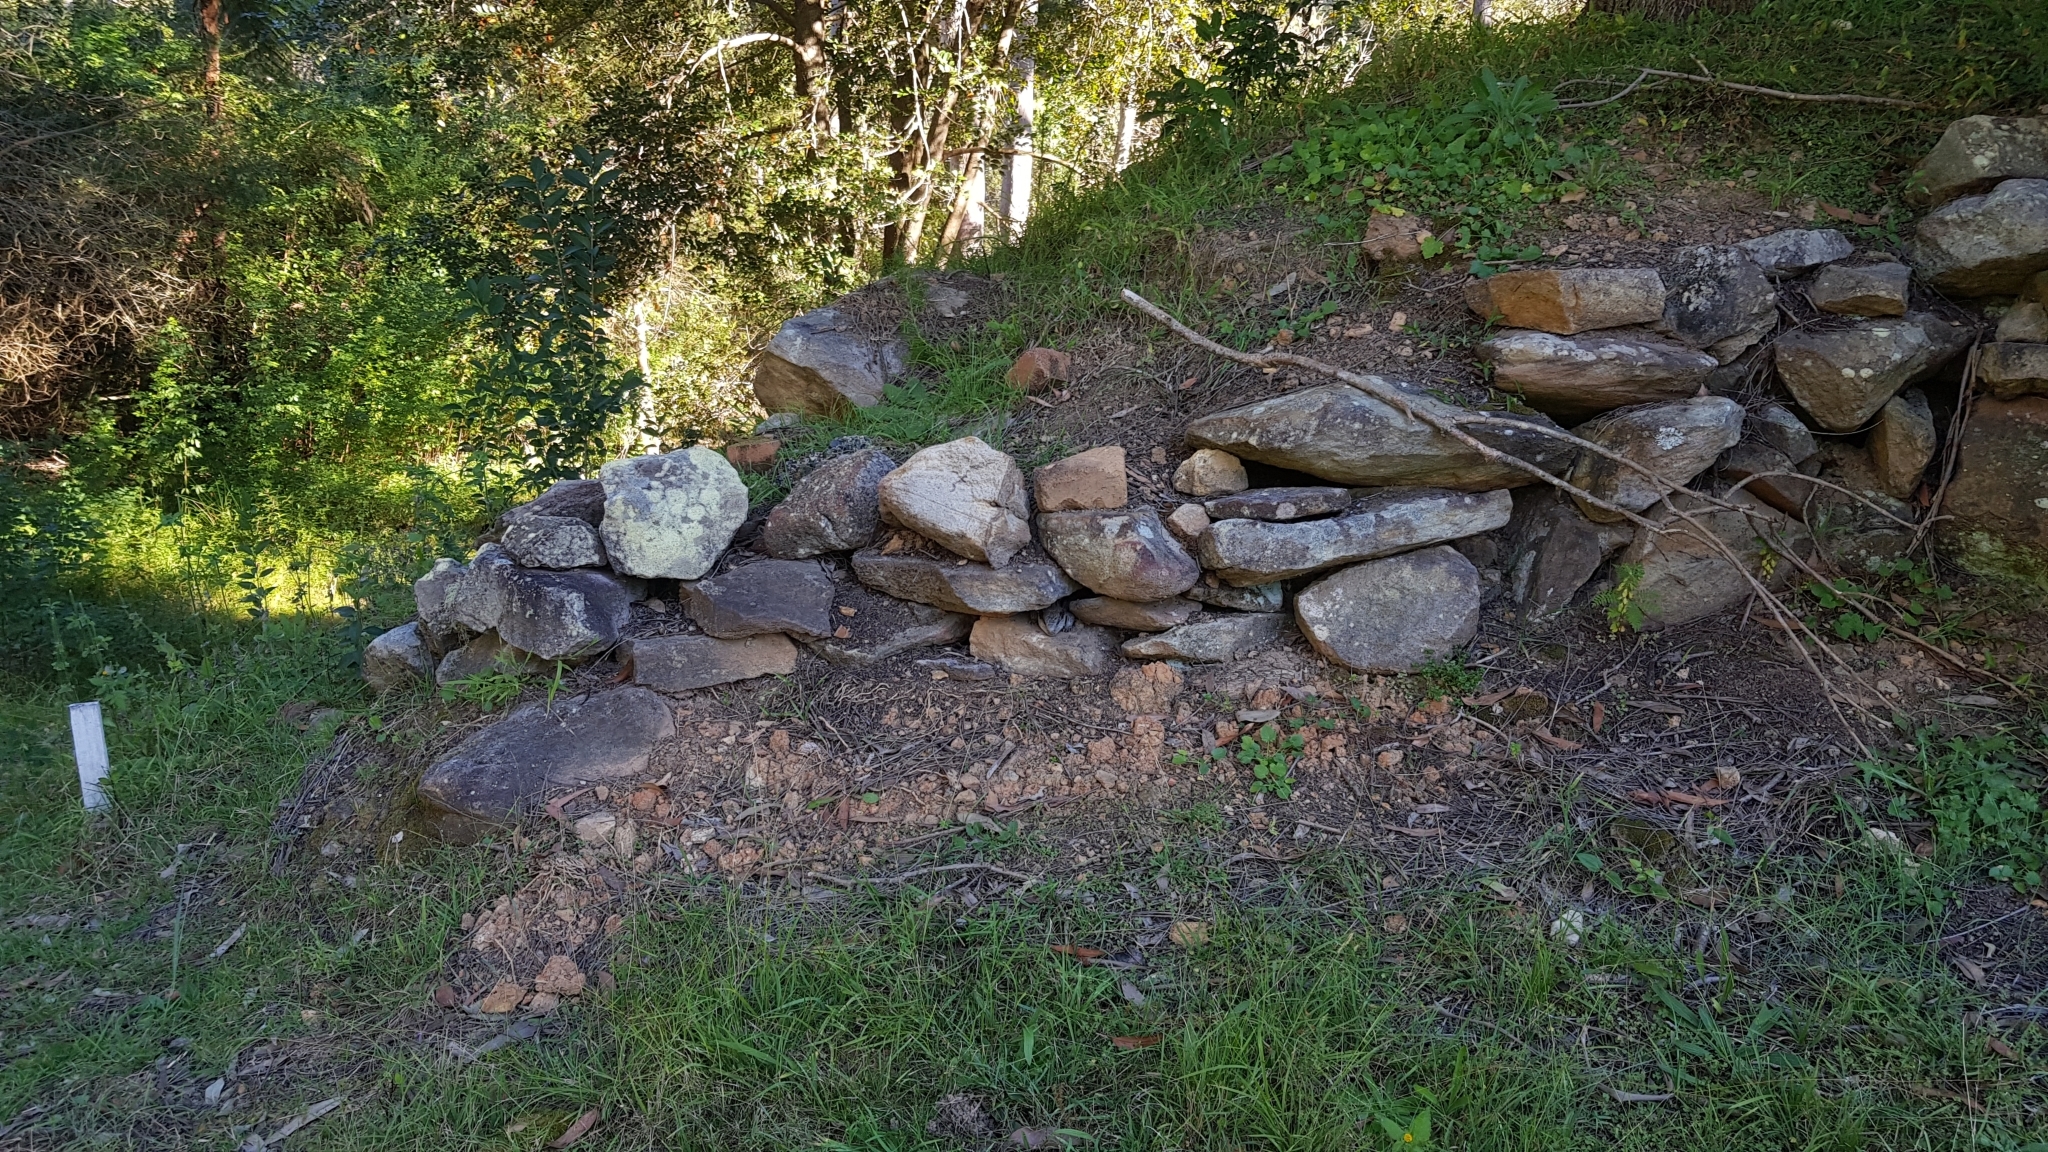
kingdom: Animalia
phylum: Chordata
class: Squamata
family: Scincidae
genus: Tiliqua
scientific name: Tiliqua scincoides
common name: Common bluetongue
